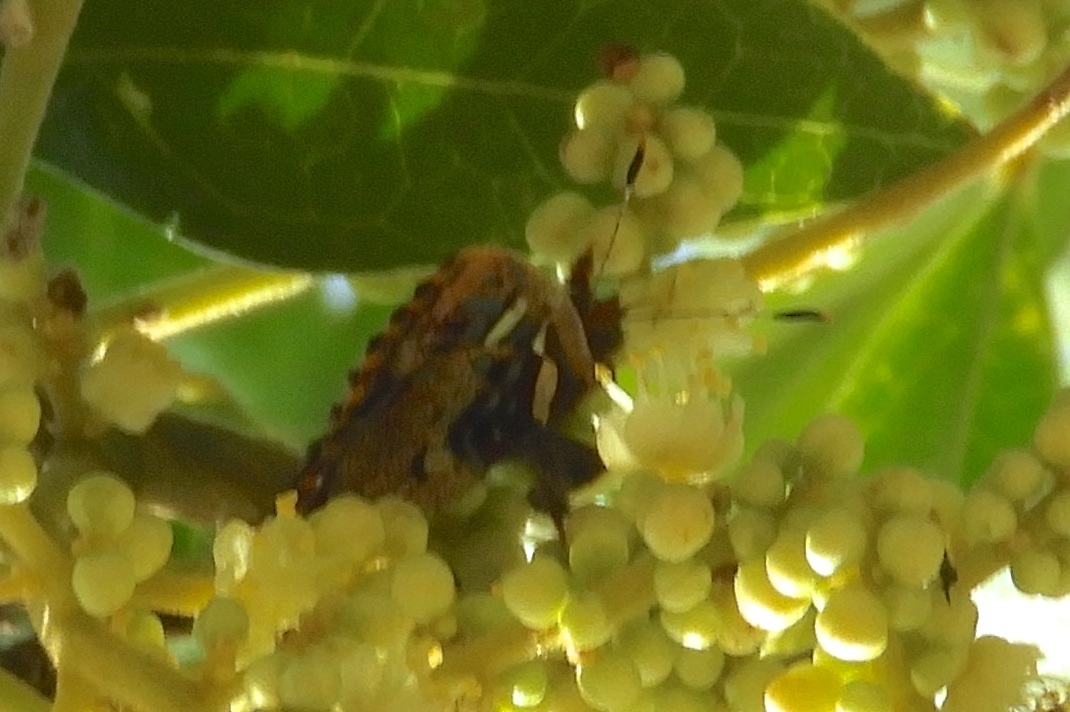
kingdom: Animalia
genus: Anteros
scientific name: Anteros carausius
